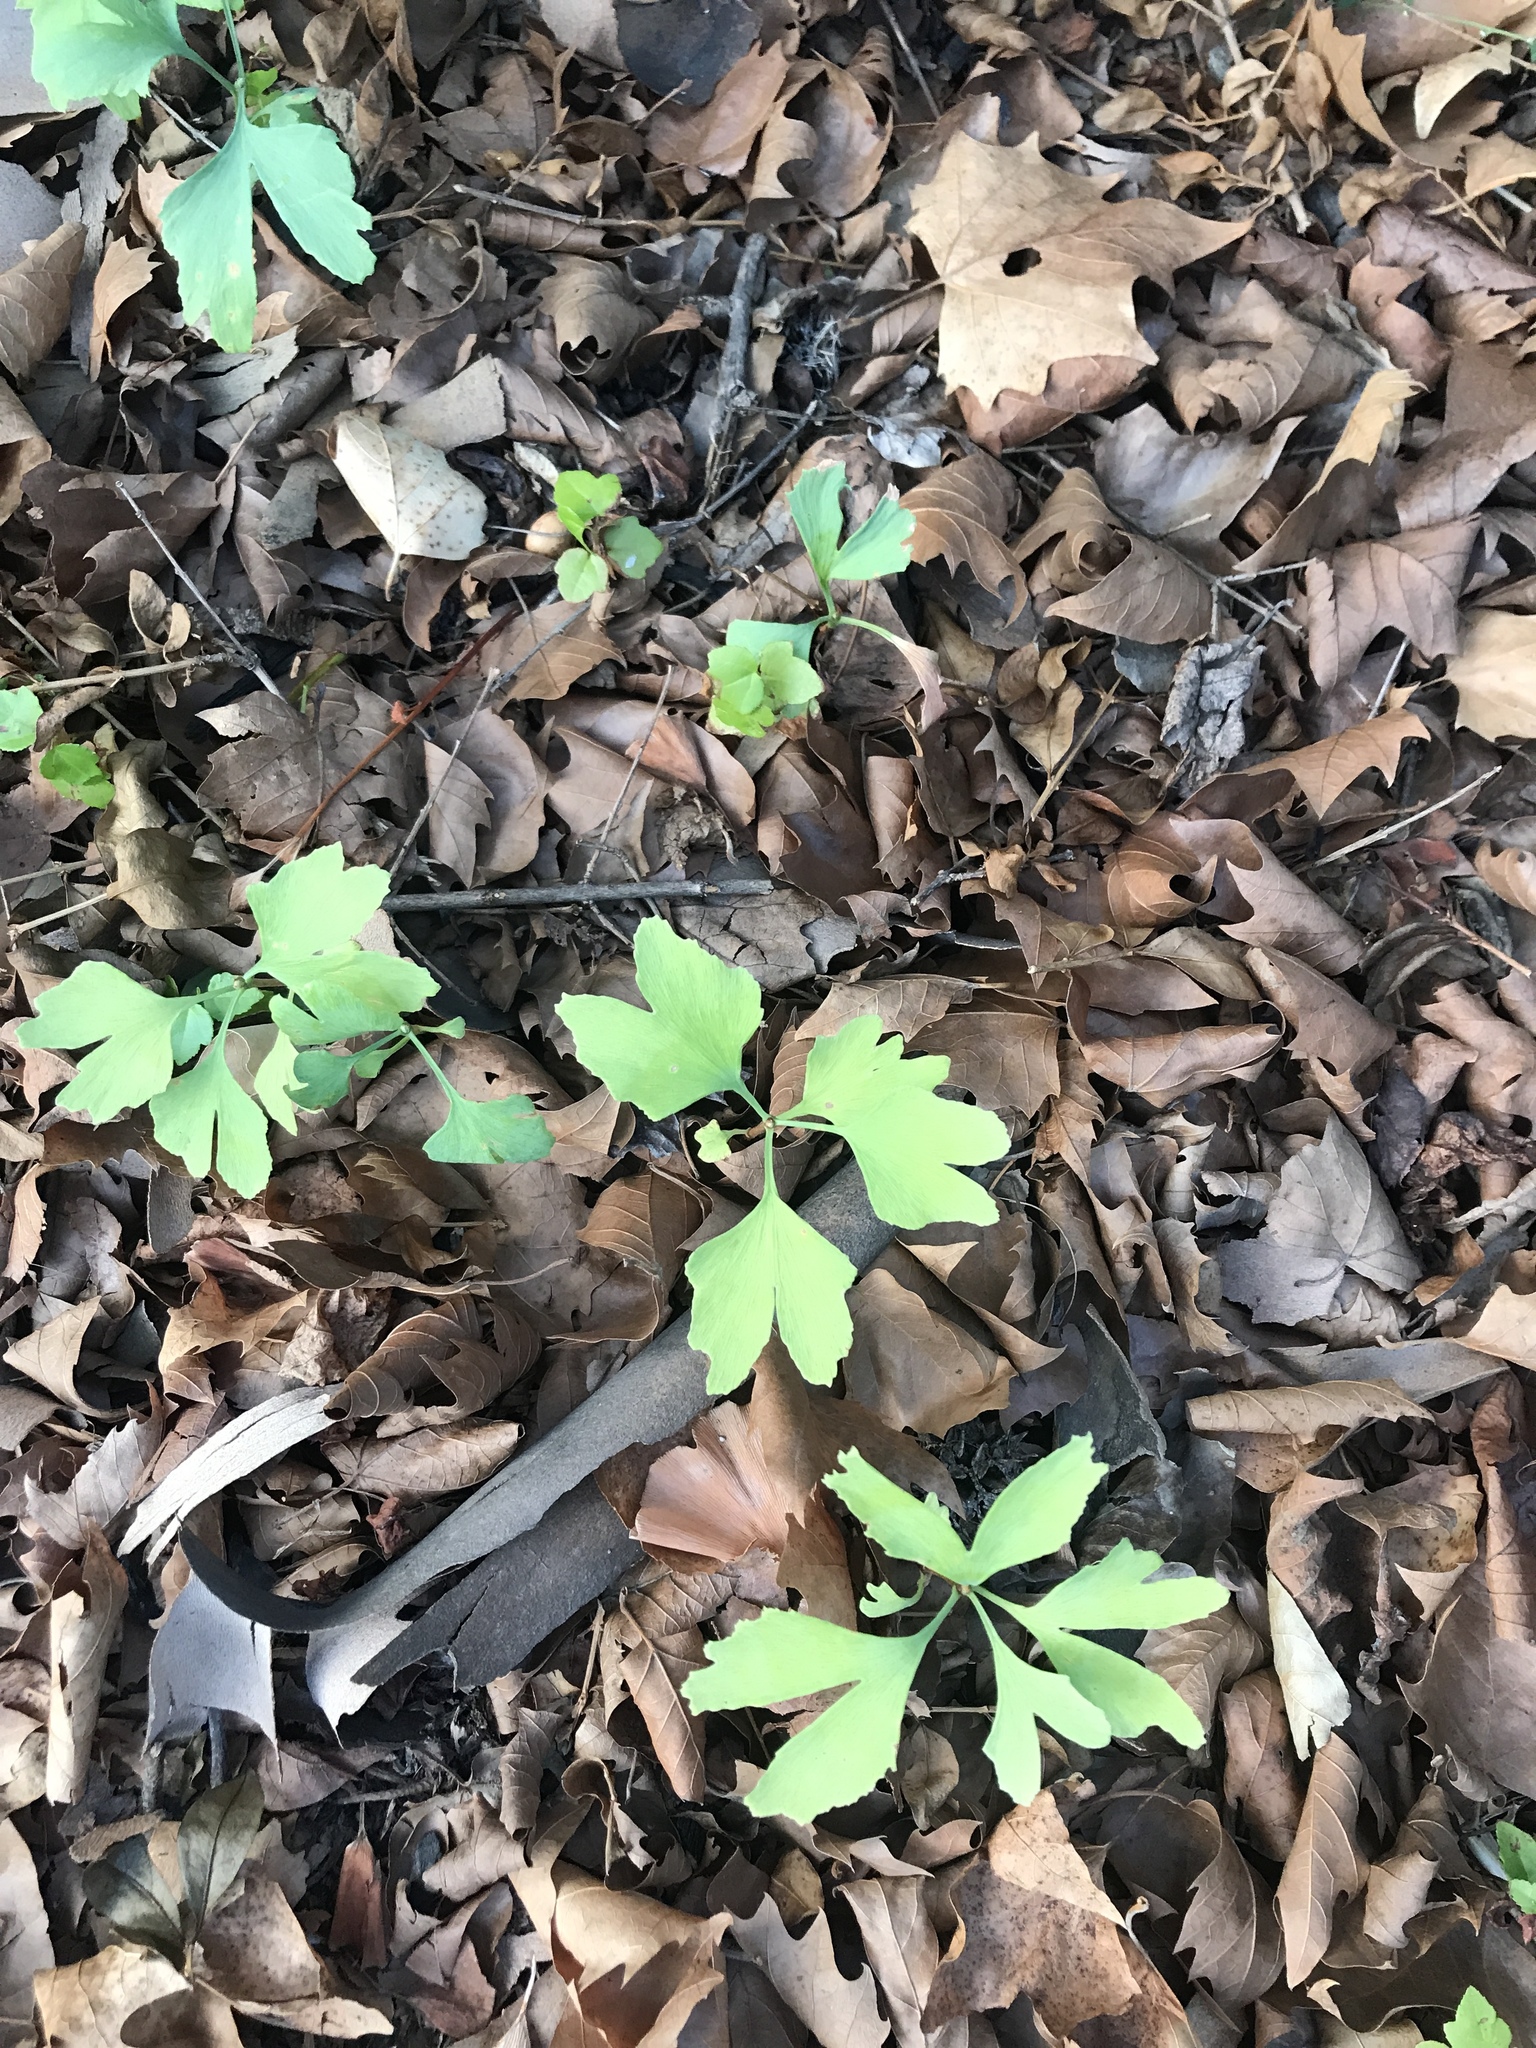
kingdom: Plantae
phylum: Tracheophyta
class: Ginkgoopsida
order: Ginkgoales
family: Ginkgoaceae
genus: Ginkgo
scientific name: Ginkgo biloba
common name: Ginkgo
